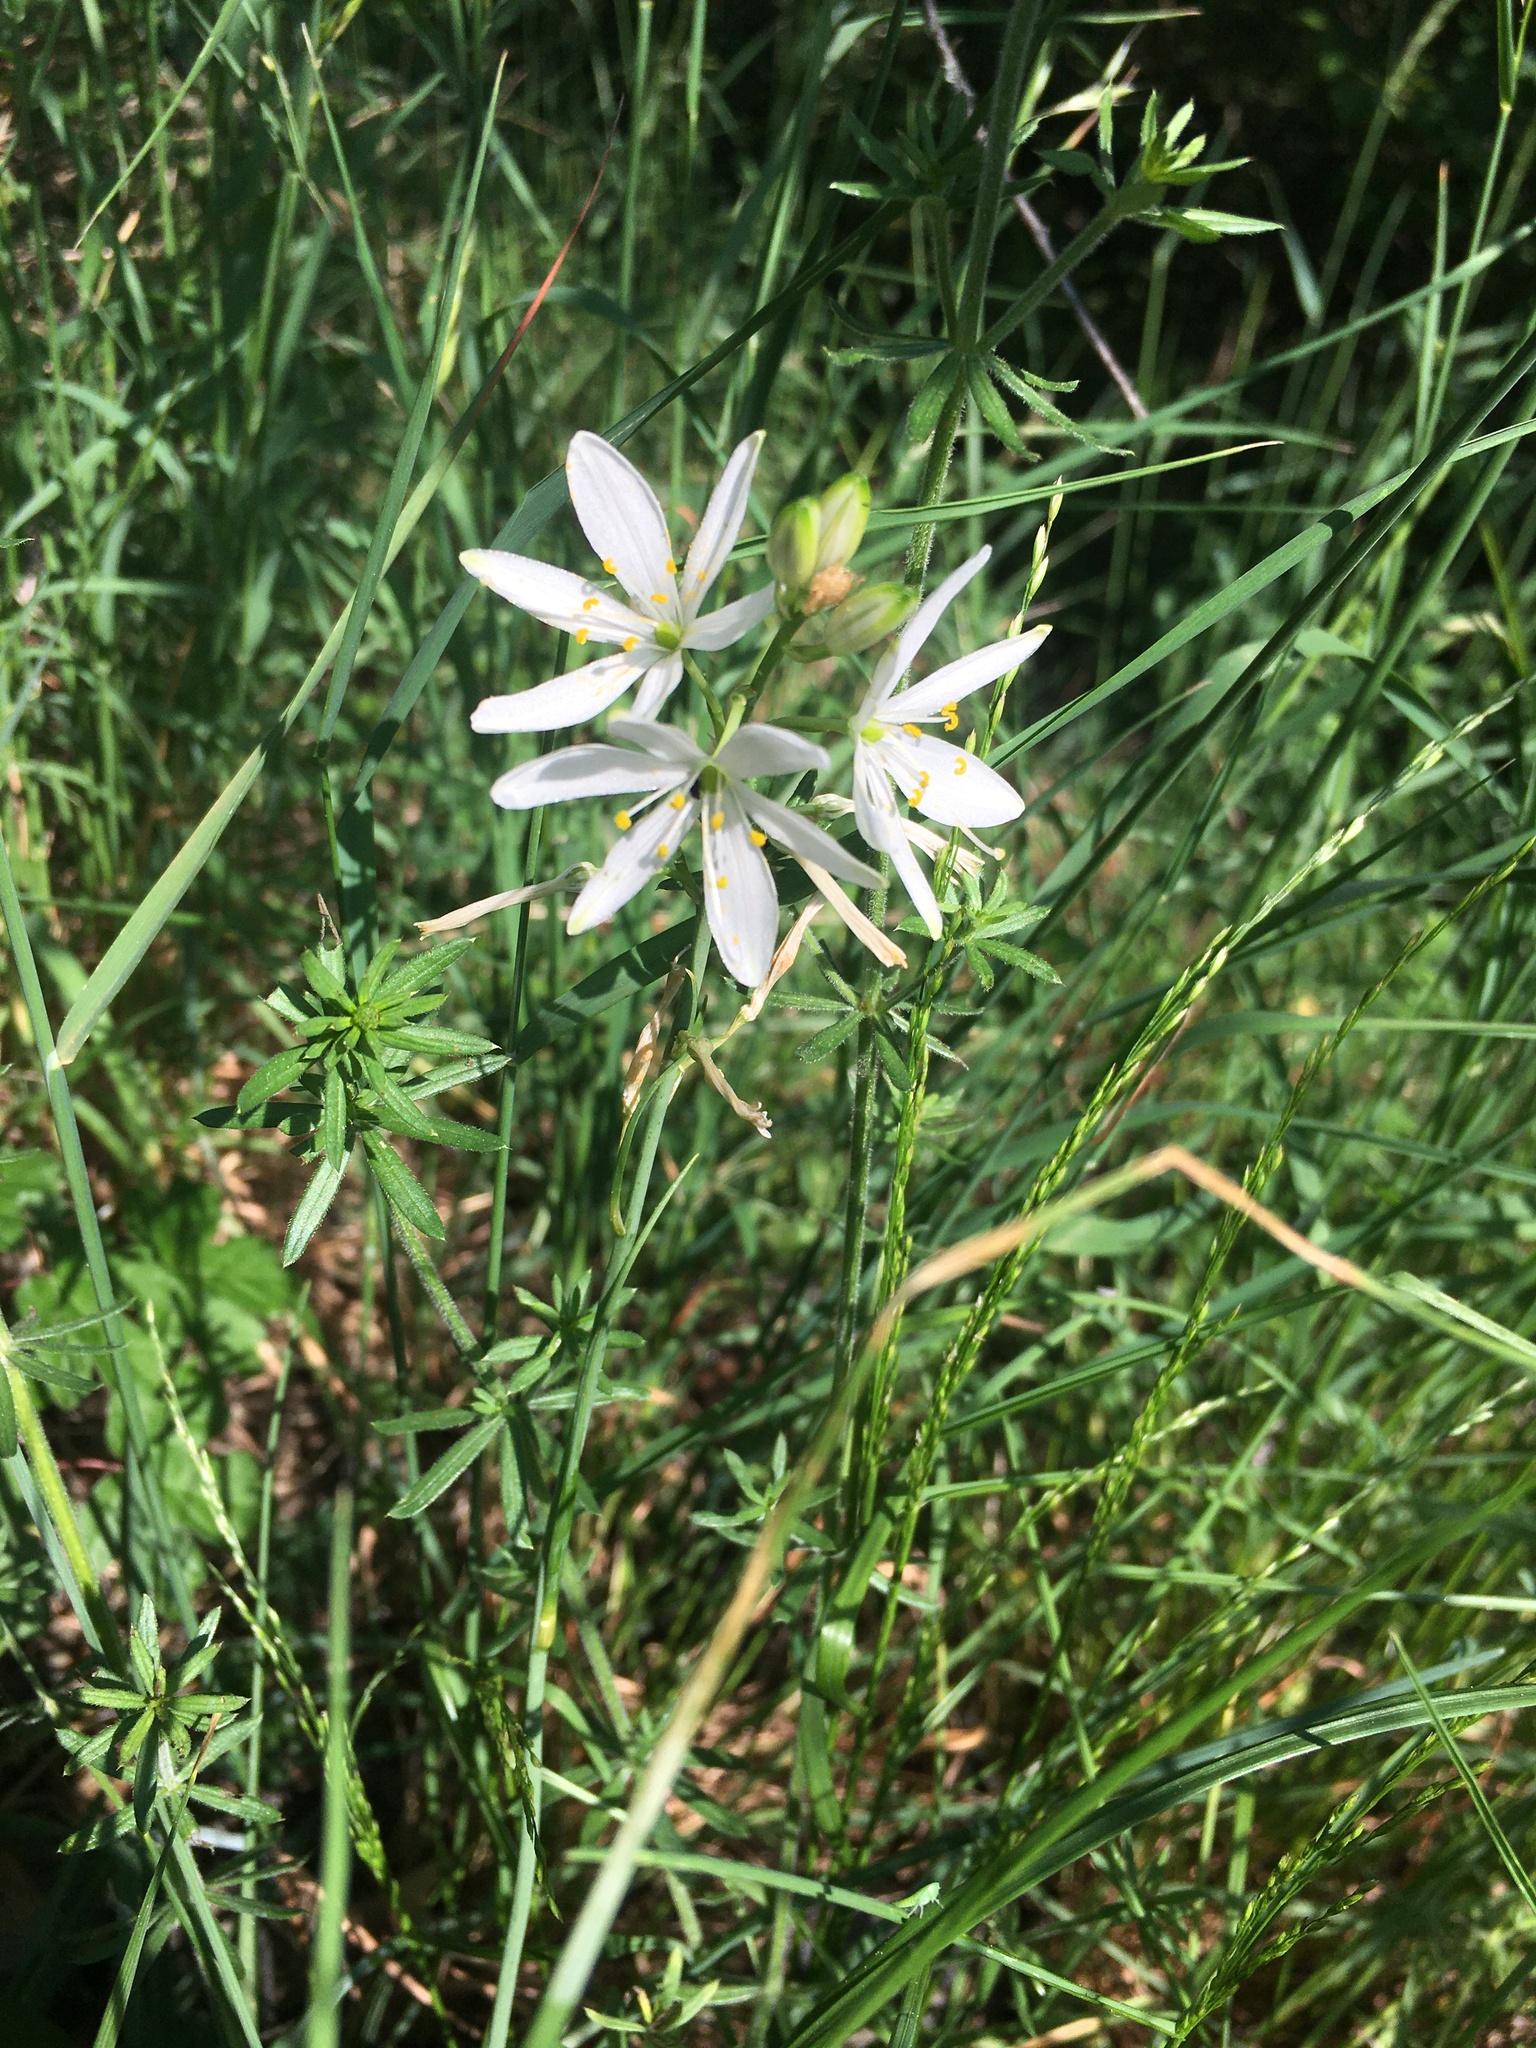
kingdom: Plantae
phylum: Tracheophyta
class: Liliopsida
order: Asparagales
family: Asparagaceae
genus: Anthericum
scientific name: Anthericum liliago
